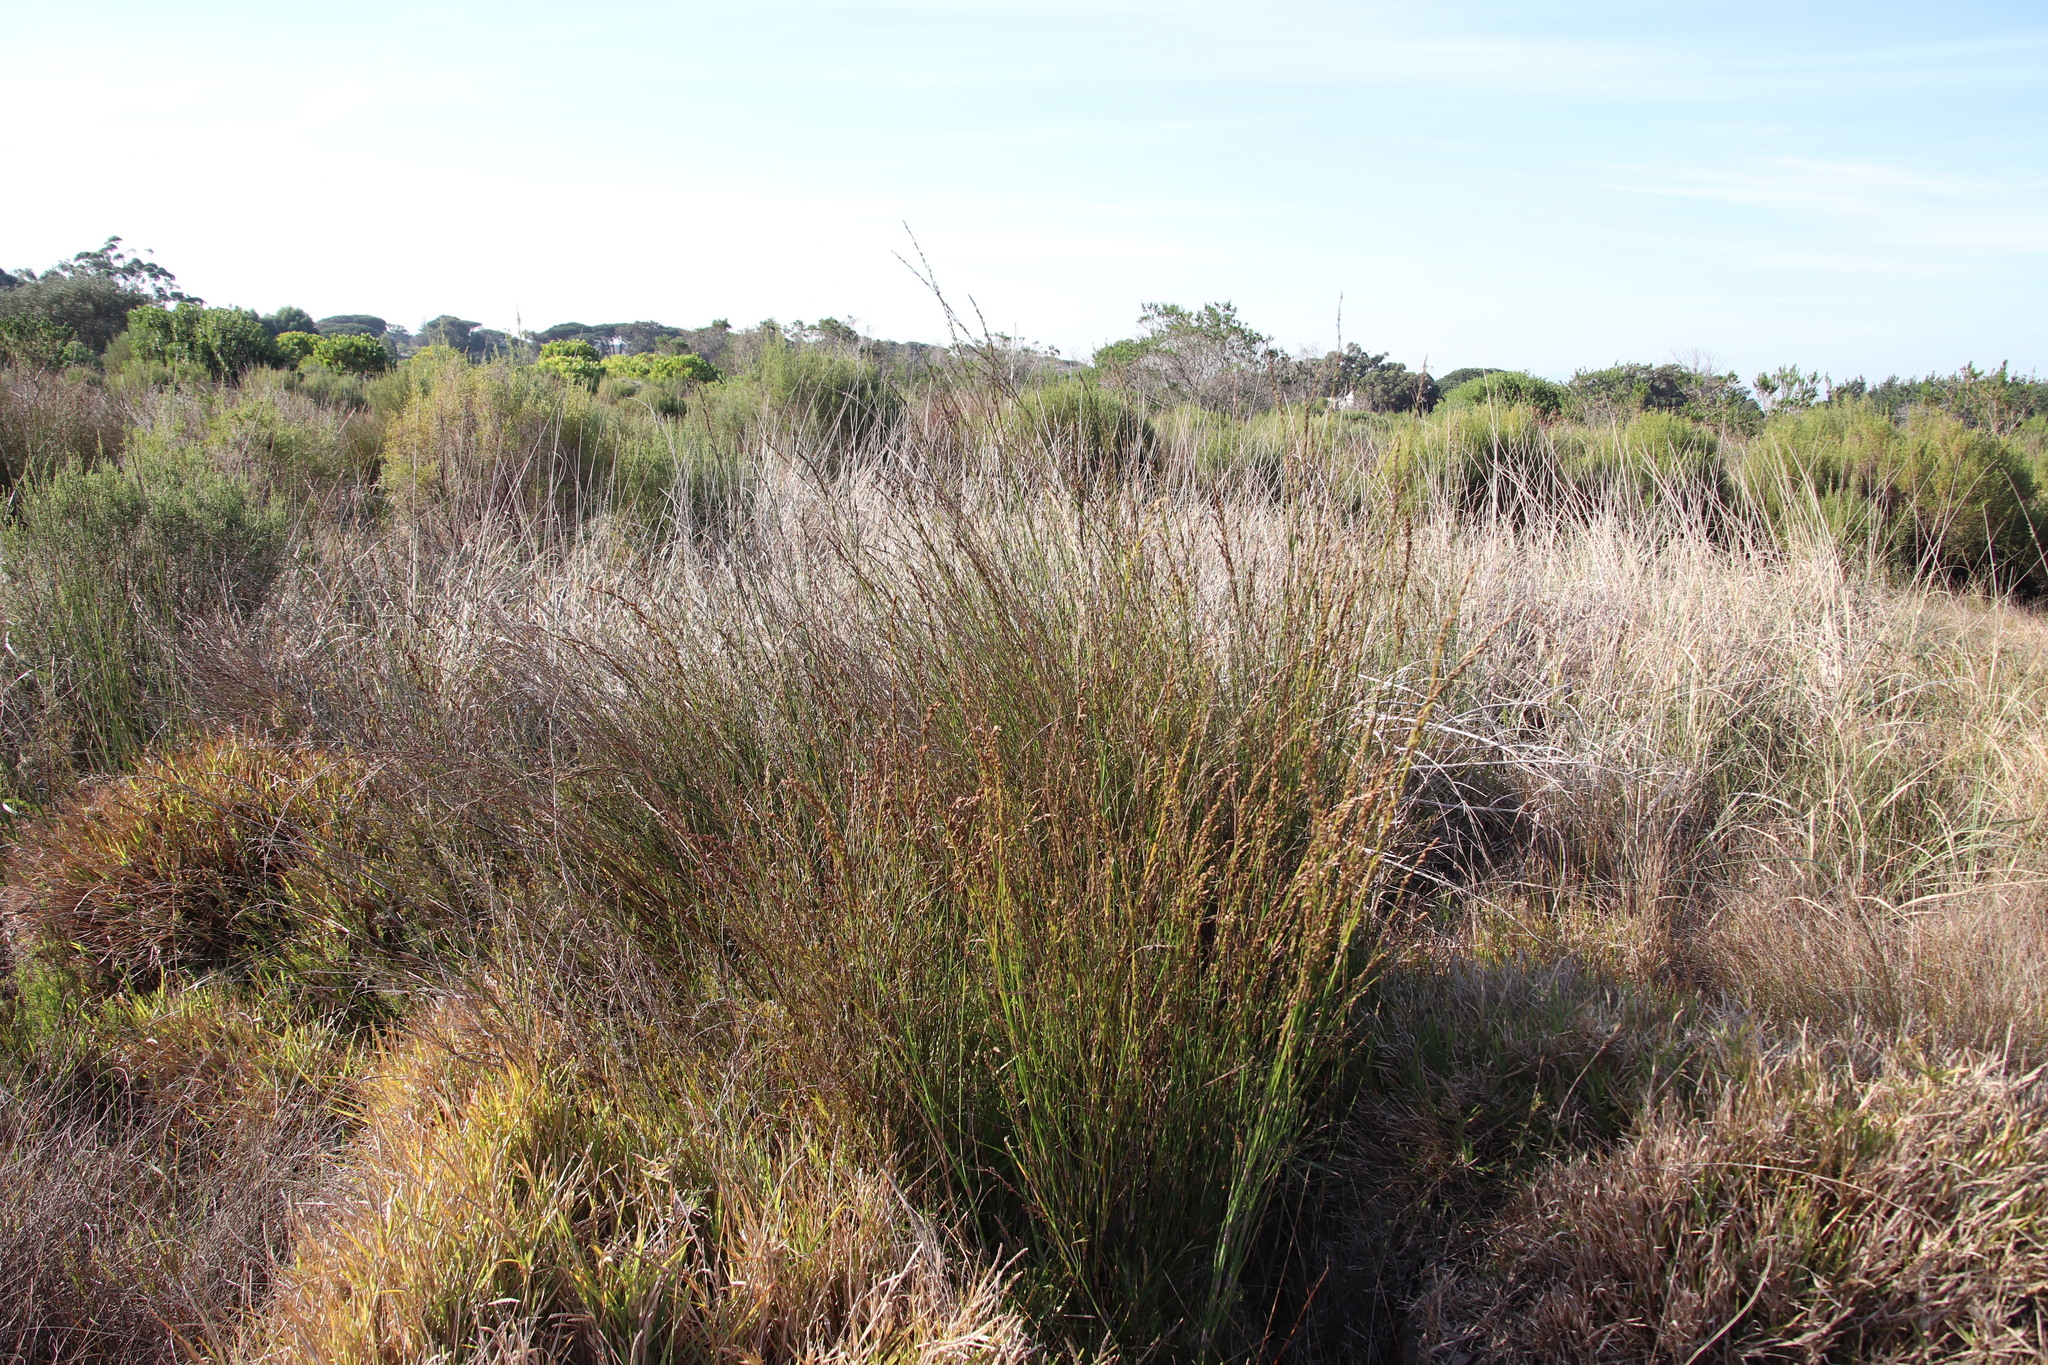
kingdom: Plantae
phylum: Tracheophyta
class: Liliopsida
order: Poales
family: Restionaceae
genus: Restio
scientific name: Restio tetragonus
